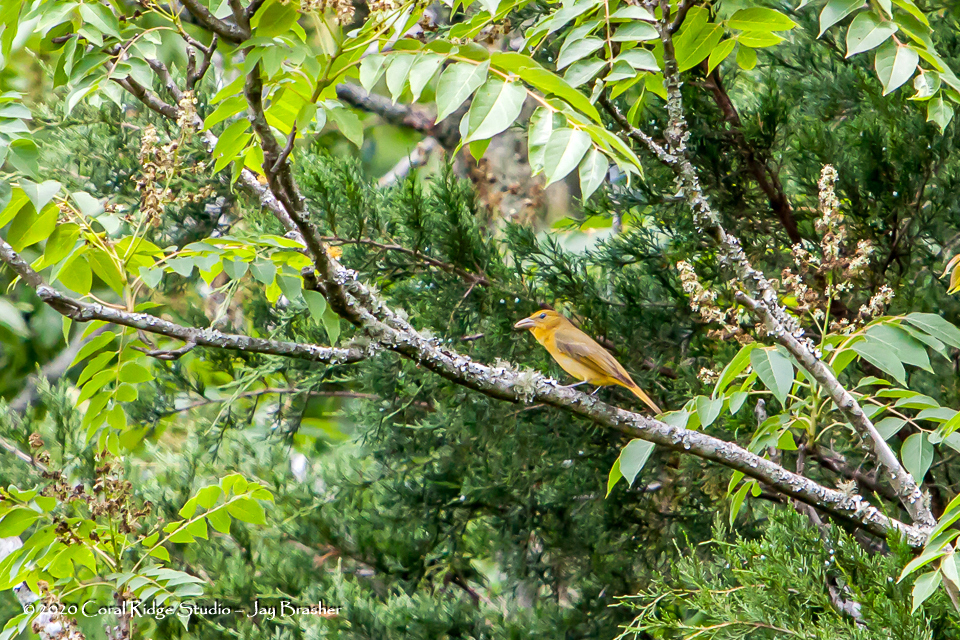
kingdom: Animalia
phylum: Chordata
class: Aves
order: Passeriformes
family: Cardinalidae
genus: Piranga
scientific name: Piranga rubra
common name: Summer tanager
